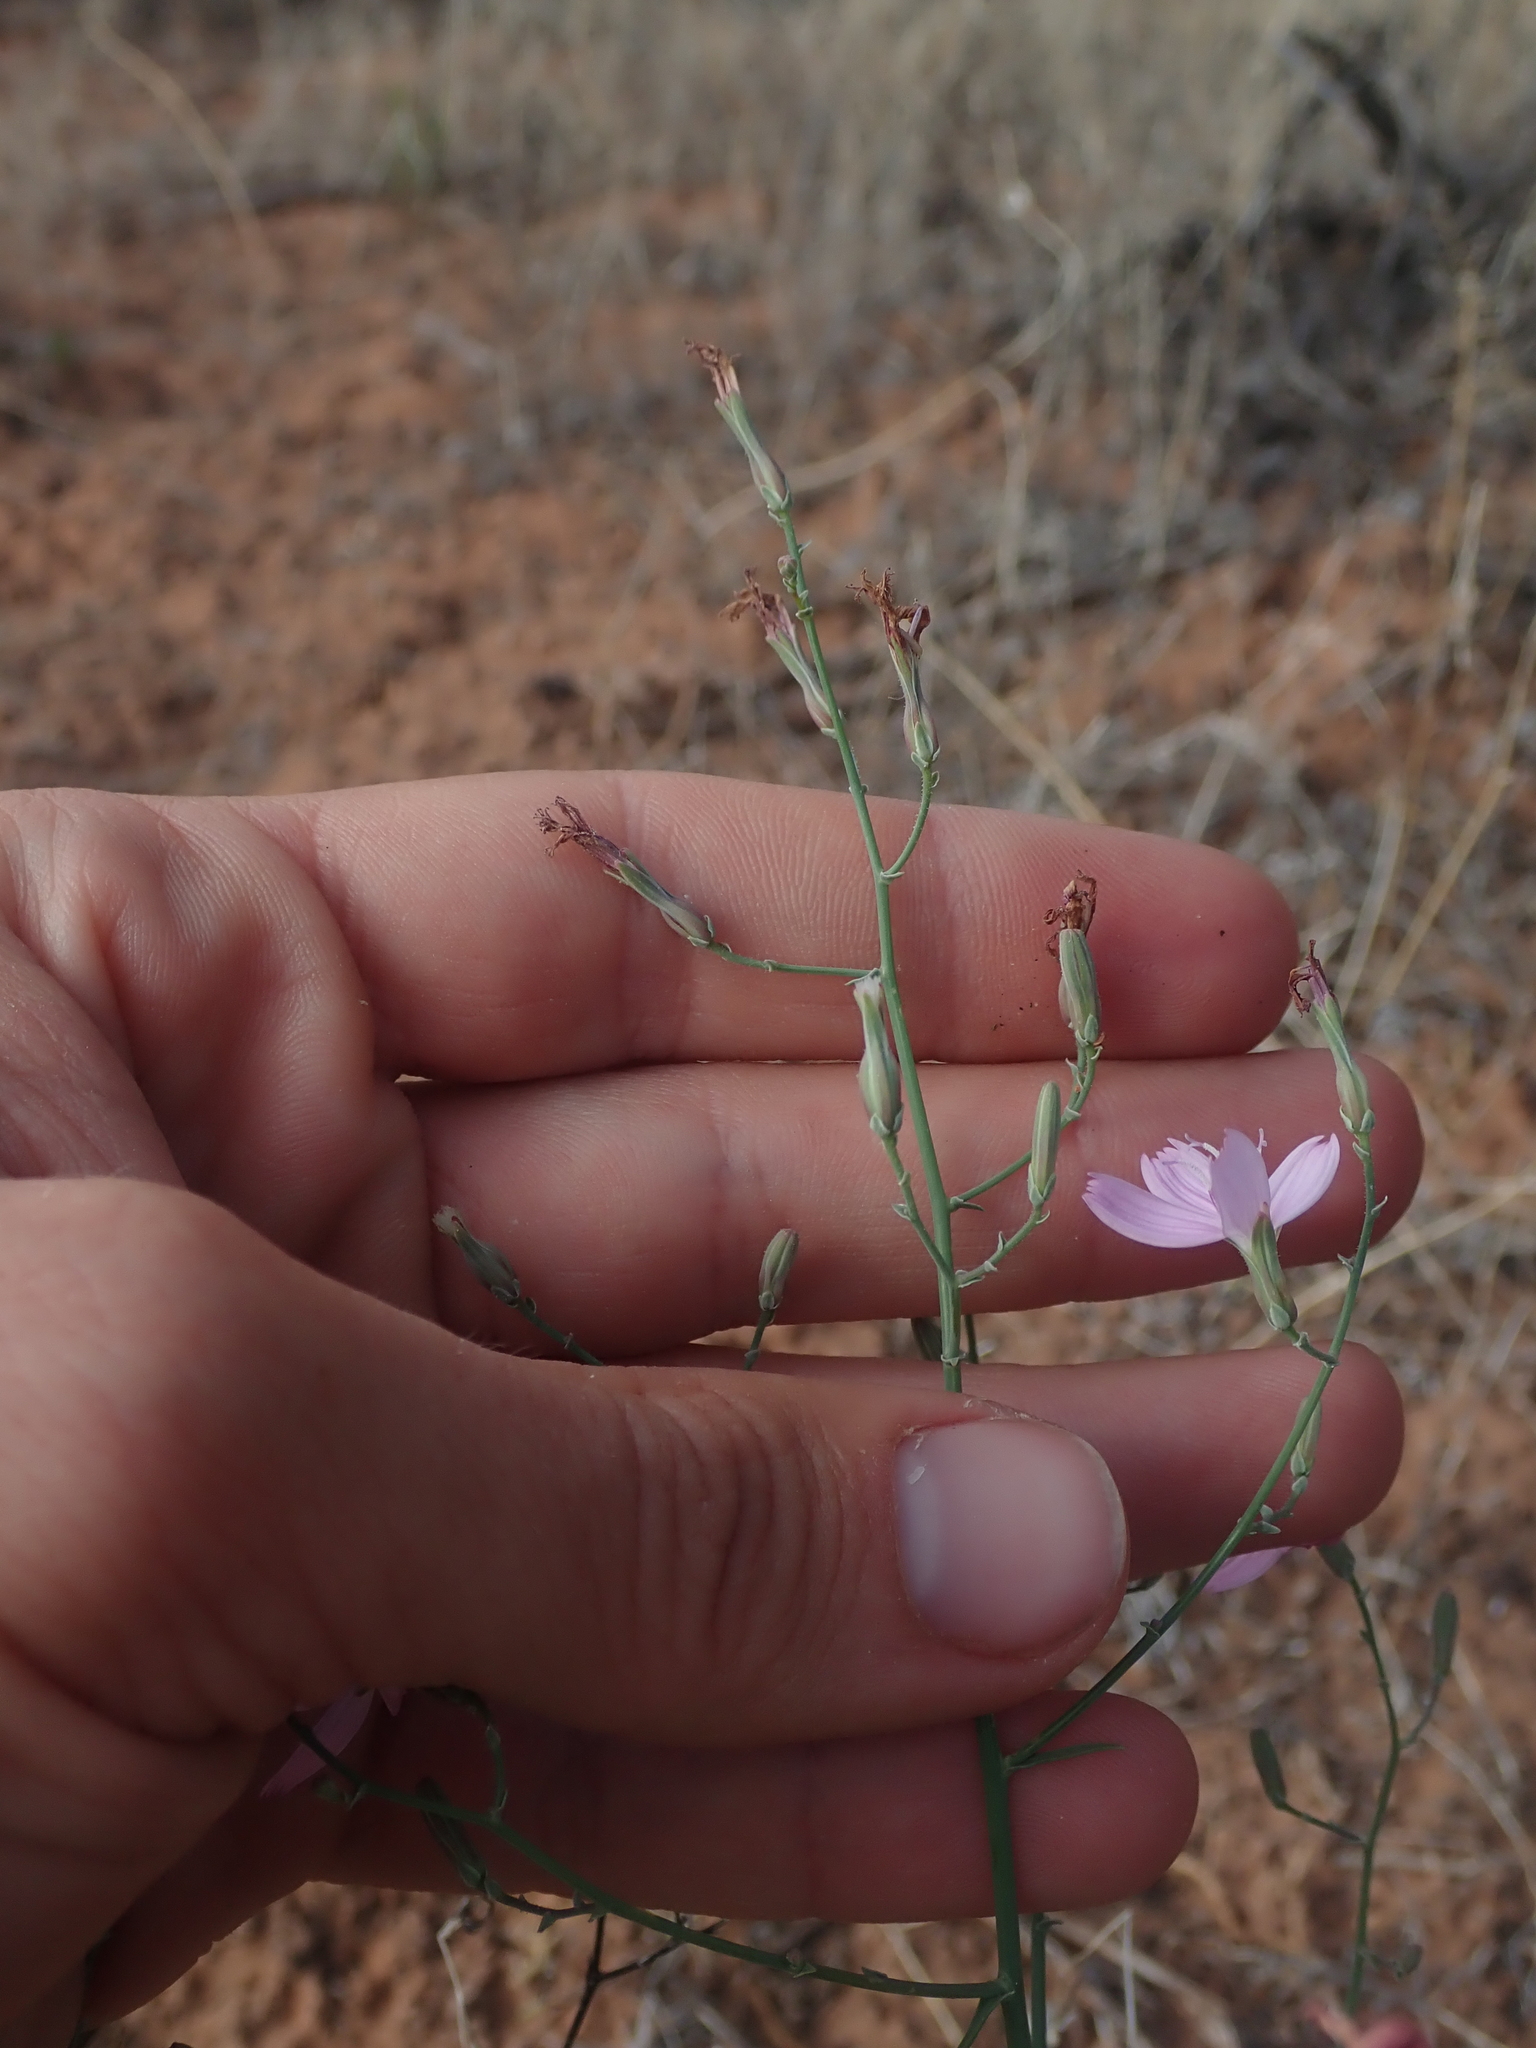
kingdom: Plantae
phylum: Tracheophyta
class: Magnoliopsida
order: Asterales
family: Asteraceae
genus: Stephanomeria
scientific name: Stephanomeria exigua
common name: Small wirelettuce
